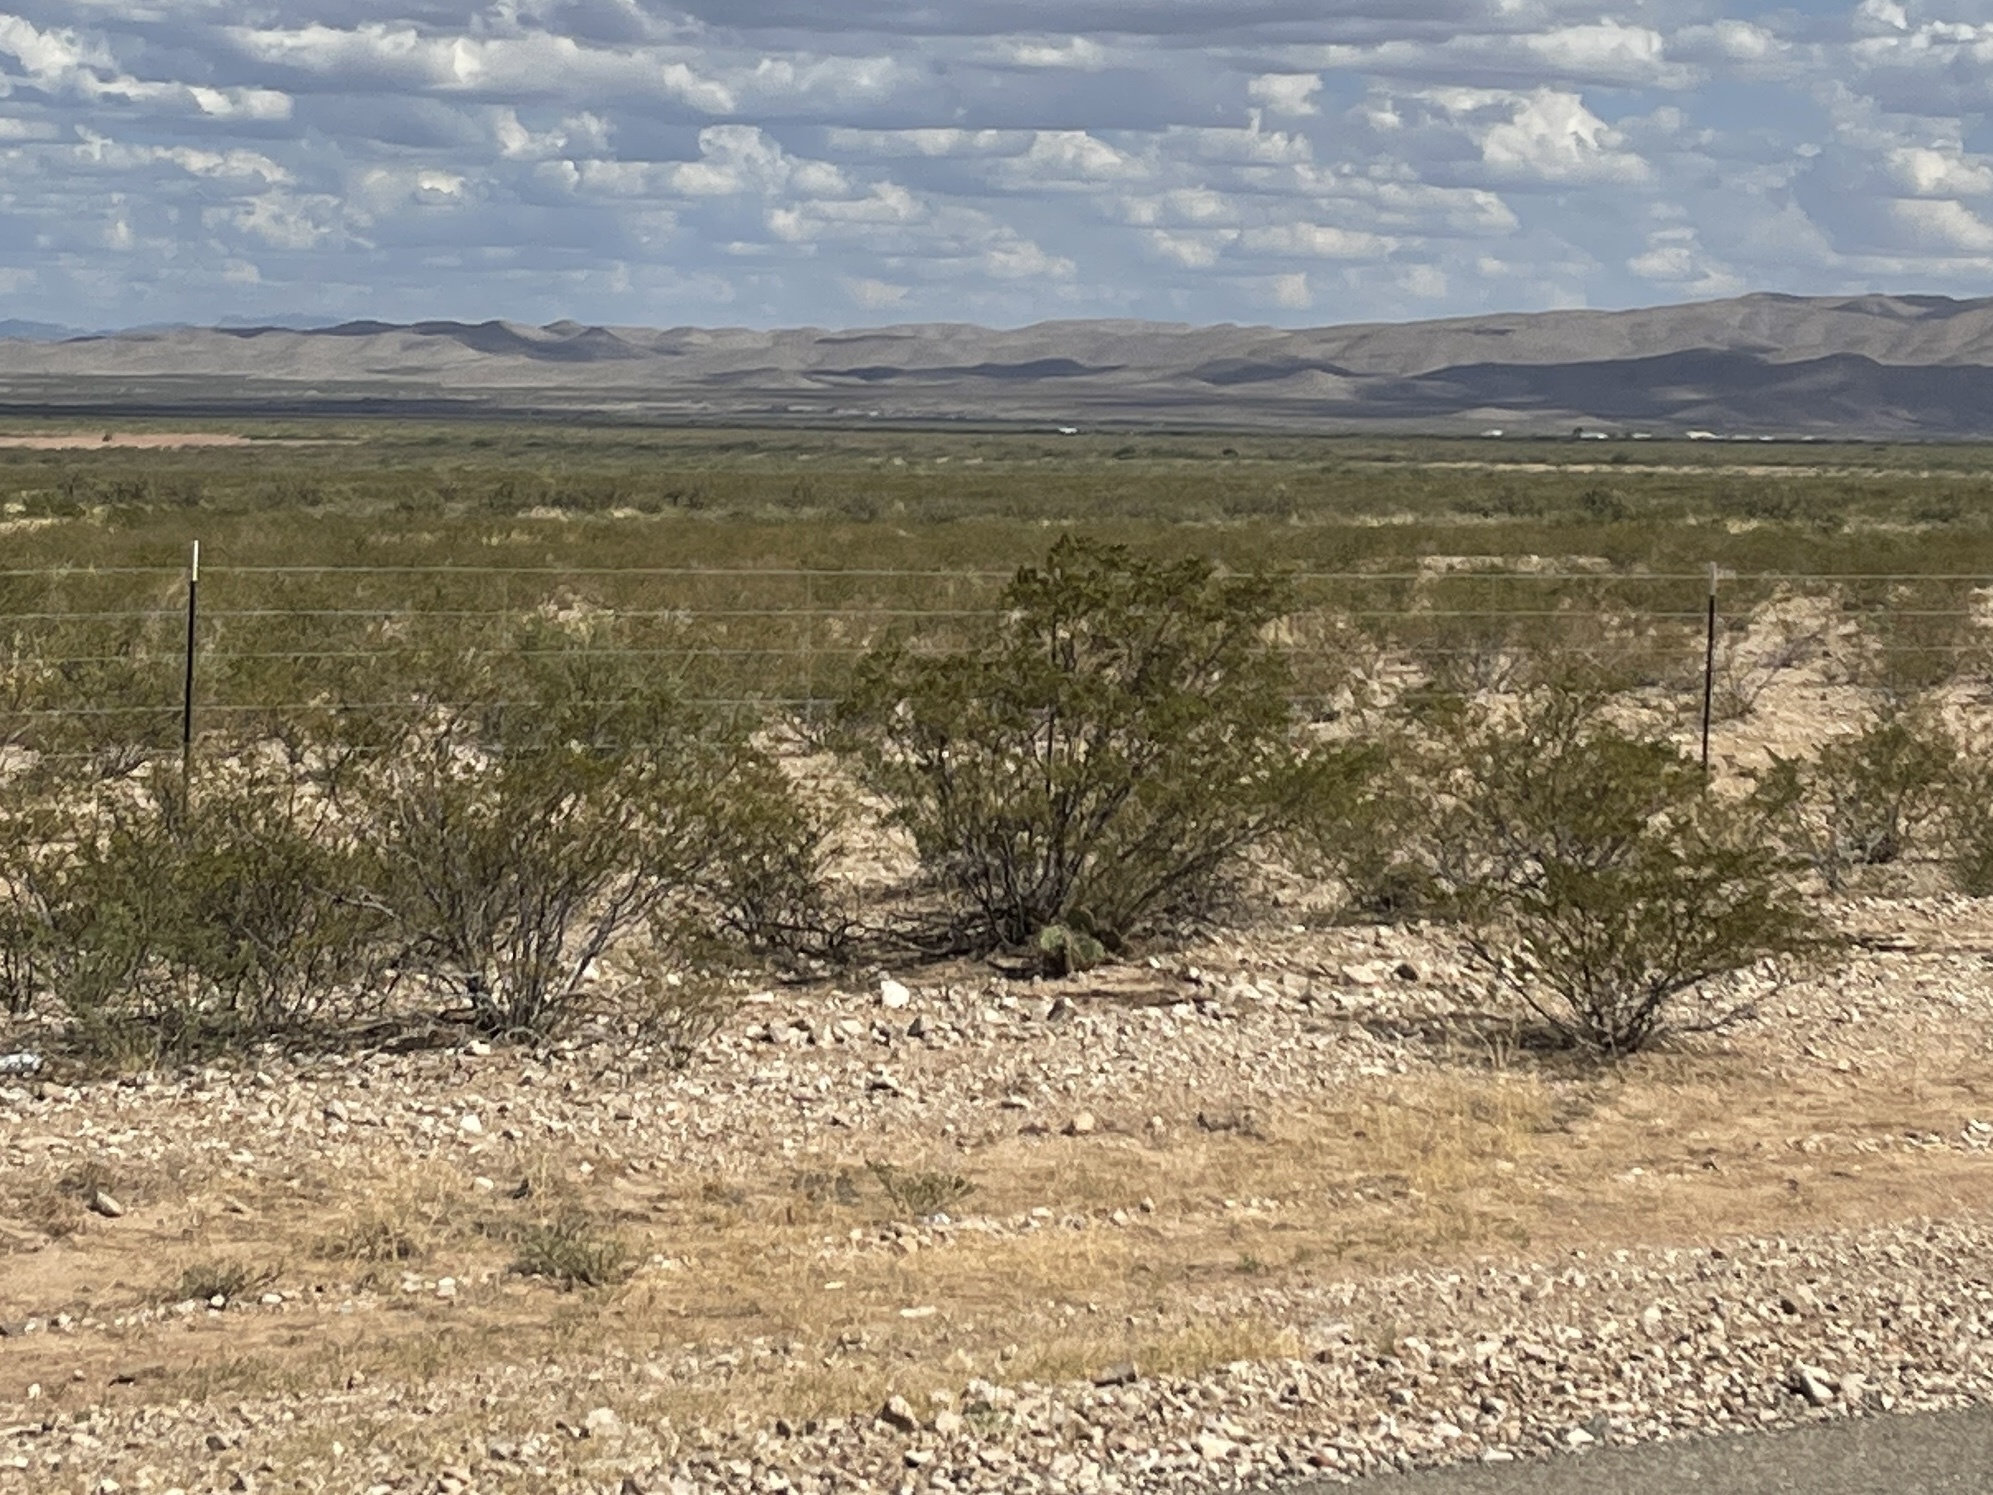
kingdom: Plantae
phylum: Tracheophyta
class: Magnoliopsida
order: Zygophyllales
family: Zygophyllaceae
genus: Larrea
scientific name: Larrea tridentata
